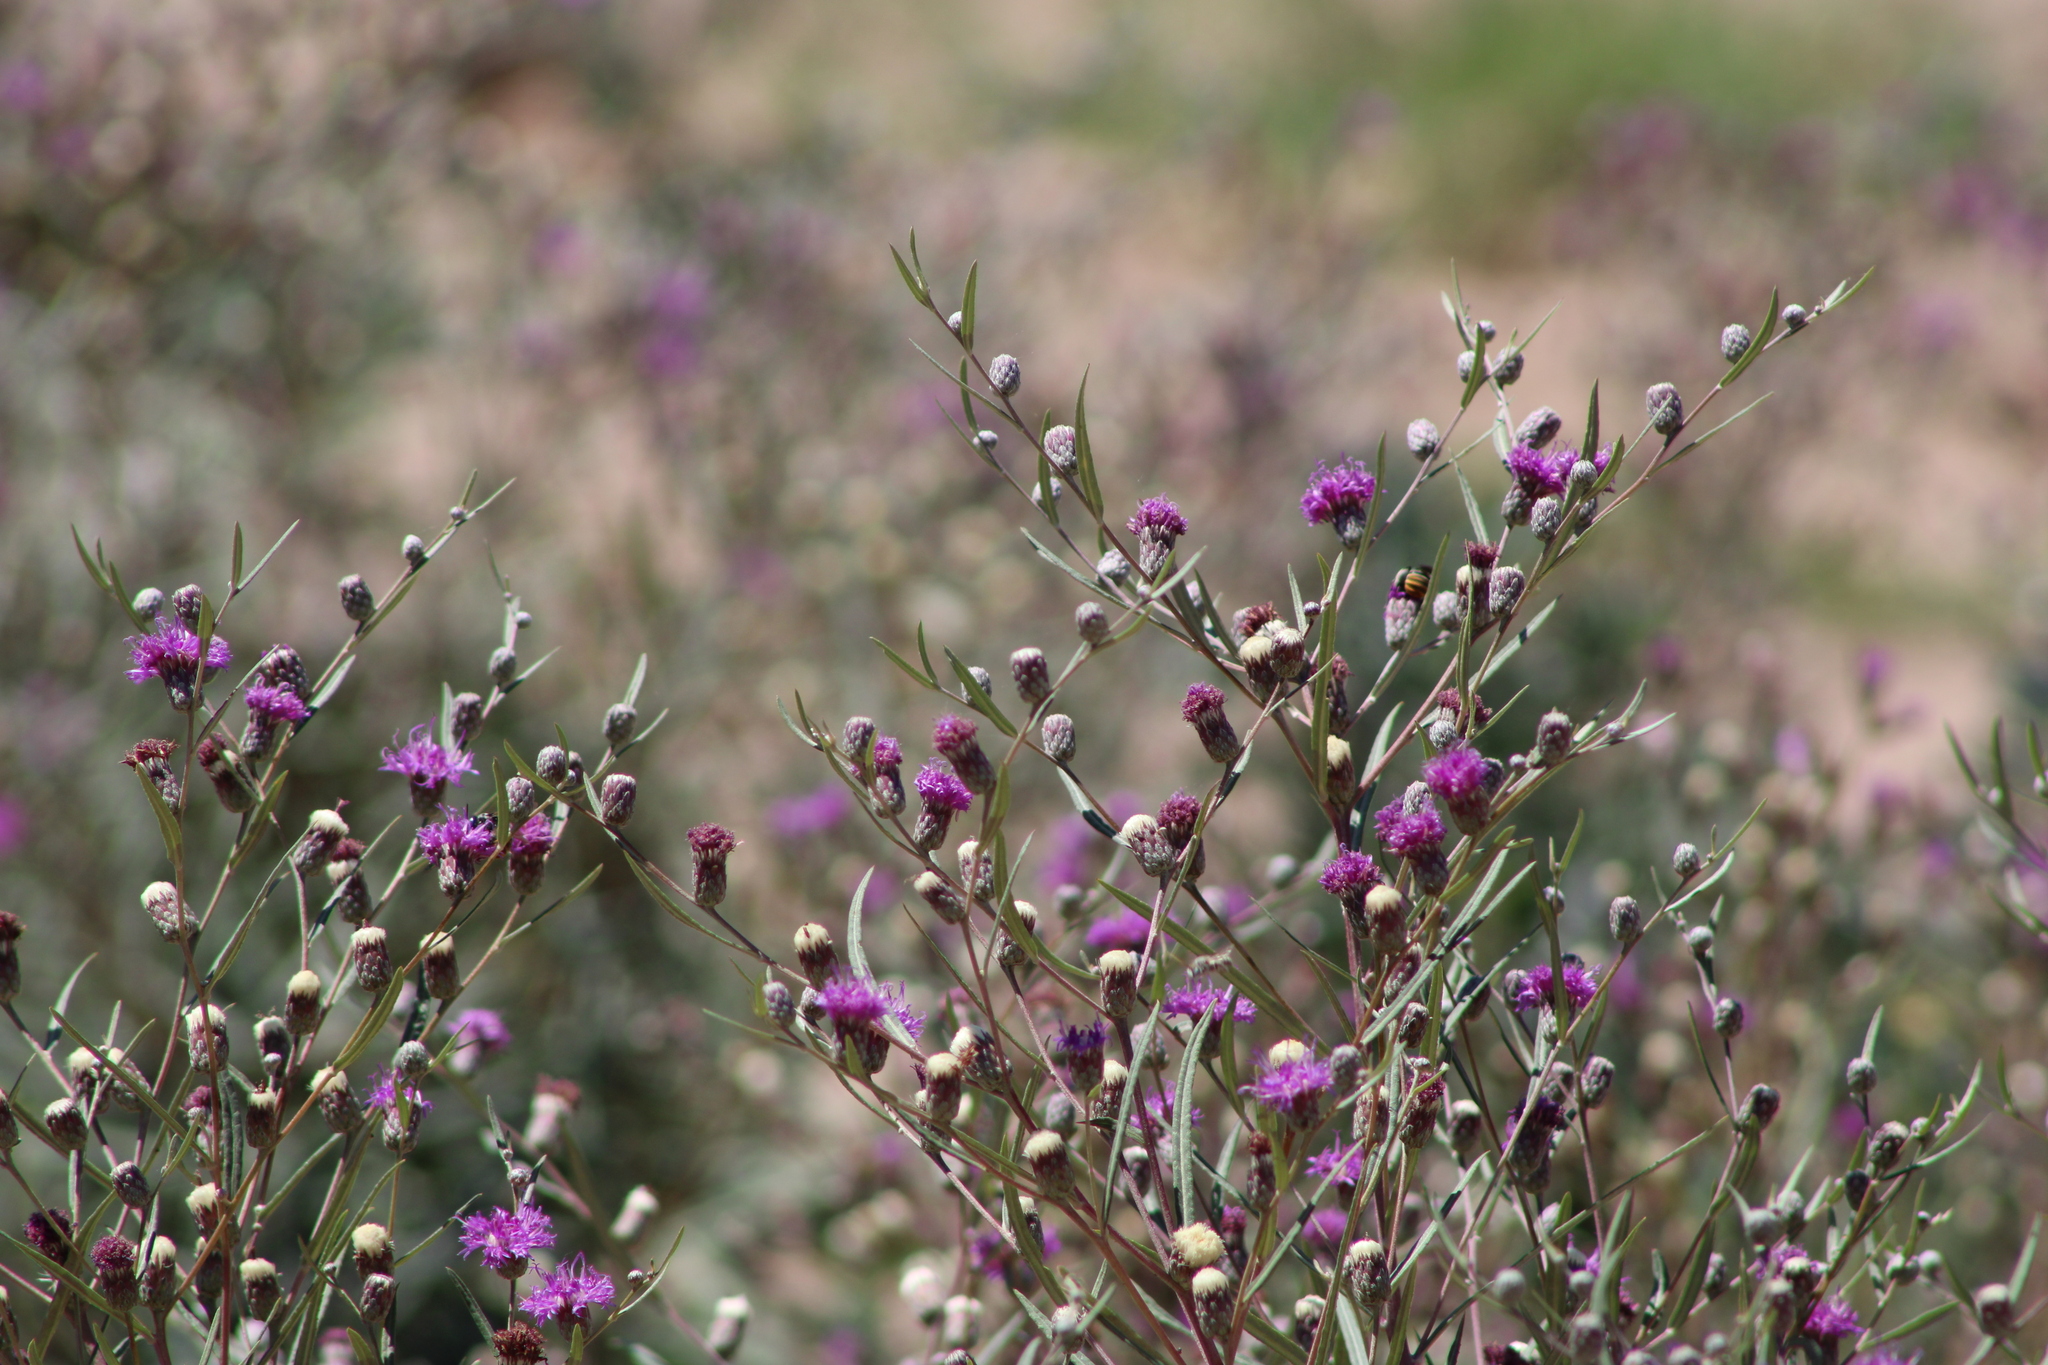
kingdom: Plantae
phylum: Tracheophyta
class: Magnoliopsida
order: Asterales
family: Asteraceae
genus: Lessingianthus
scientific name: Lessingianthus rubricaulis
